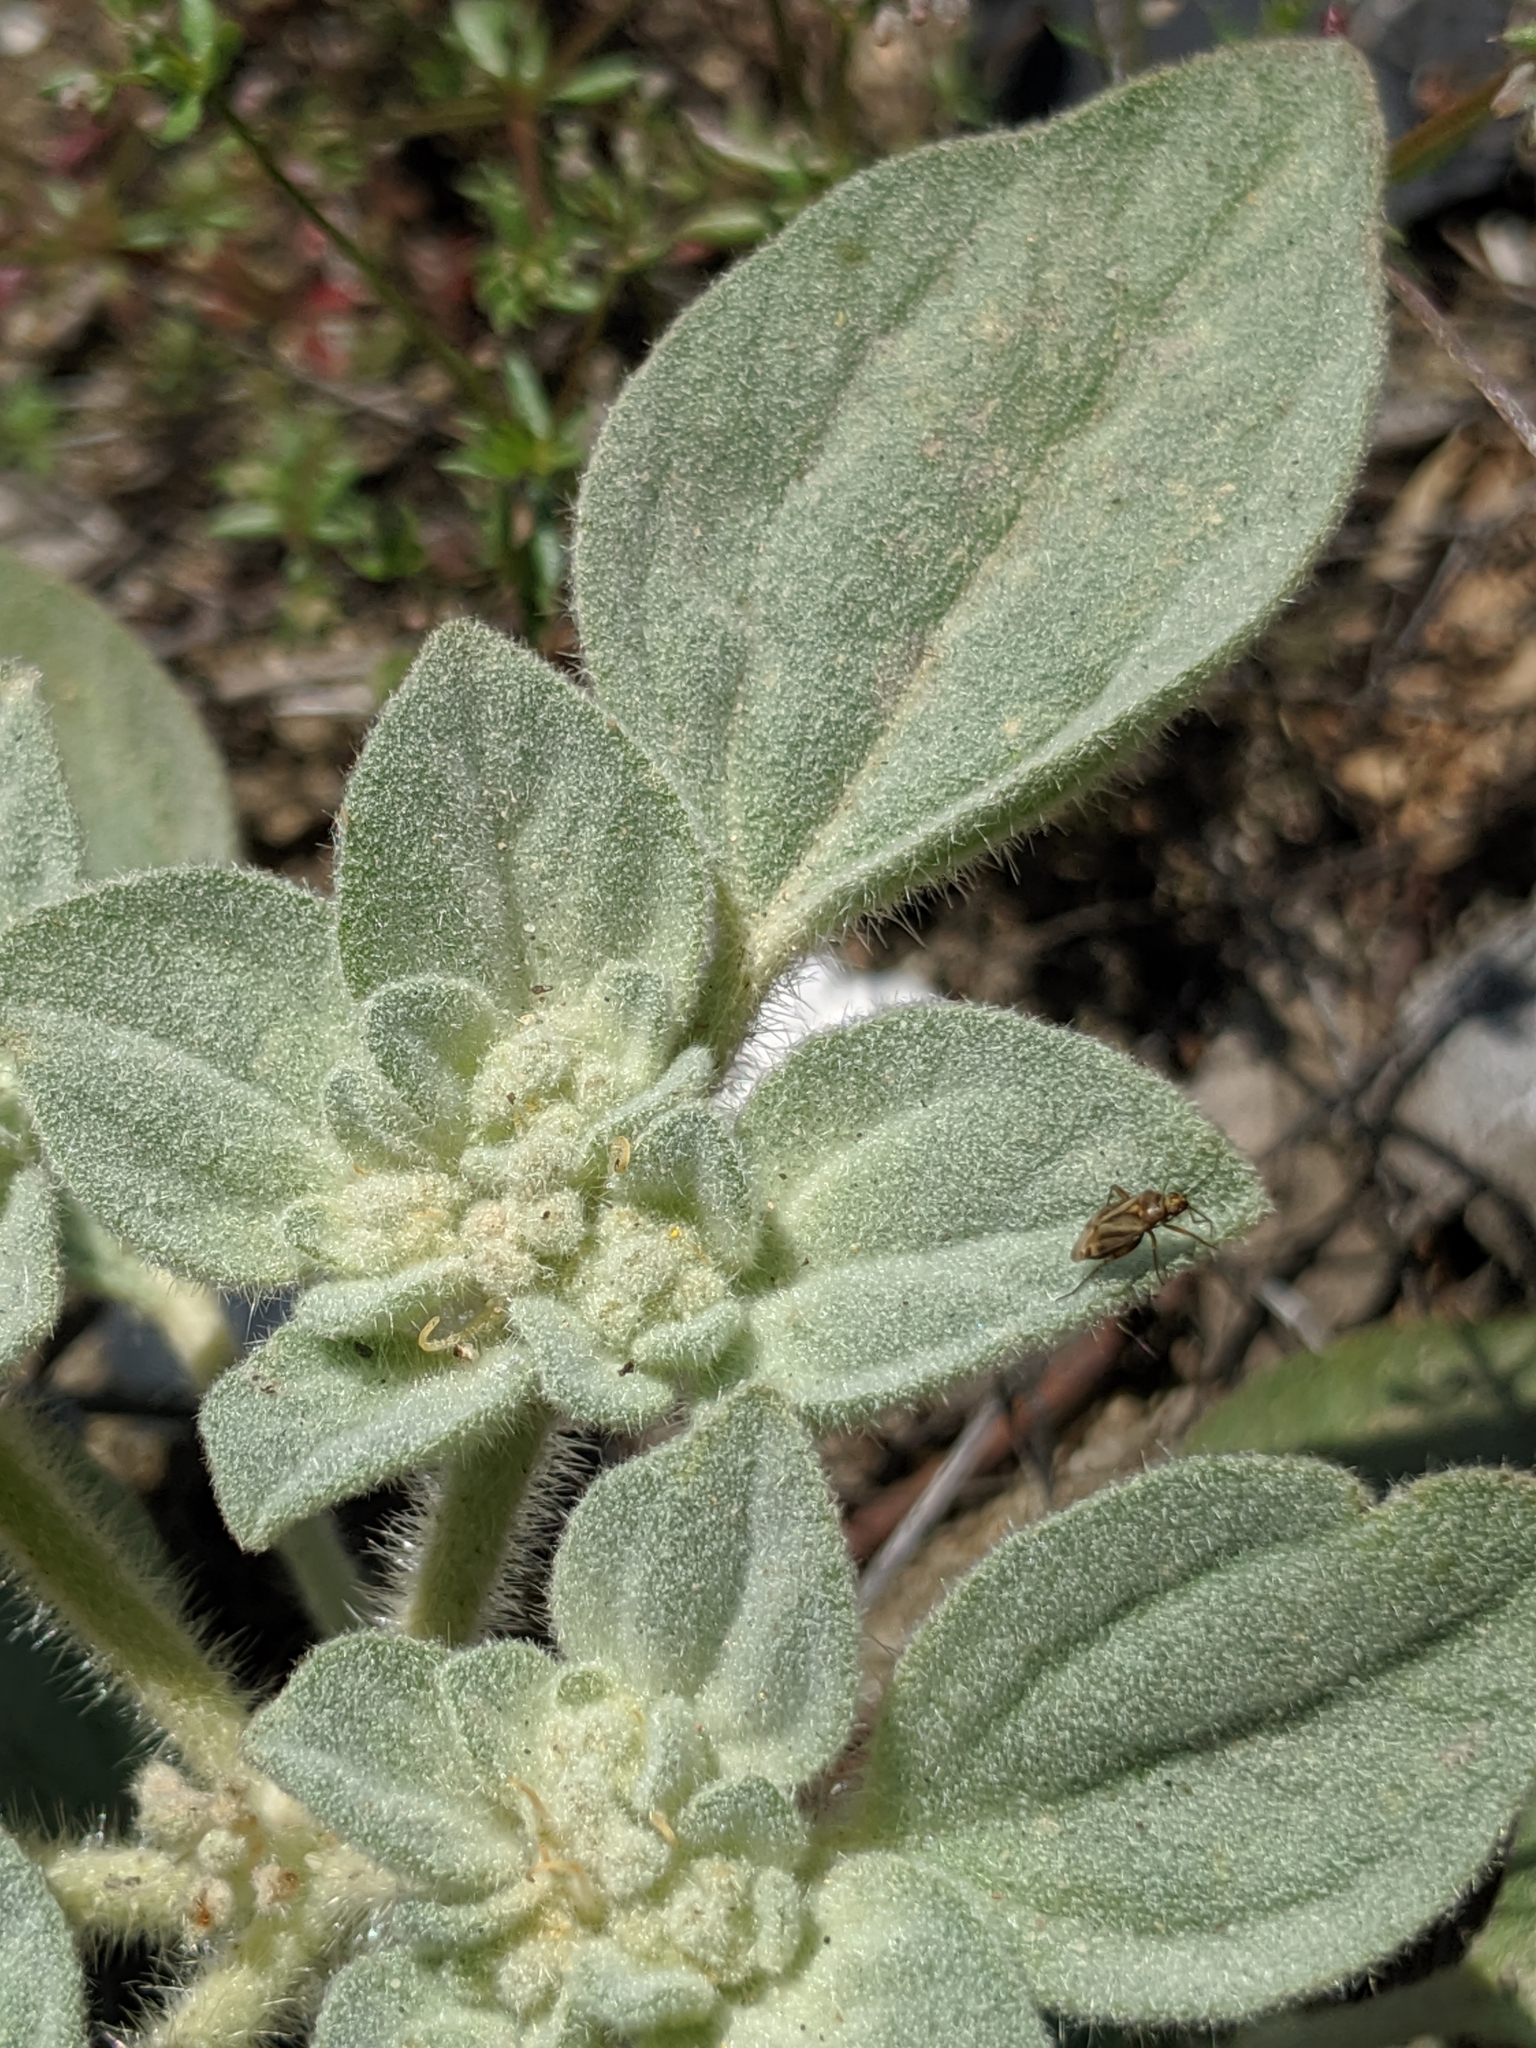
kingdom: Plantae
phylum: Tracheophyta
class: Magnoliopsida
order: Malpighiales
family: Euphorbiaceae
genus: Croton
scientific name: Croton setiger
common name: Dove weed
